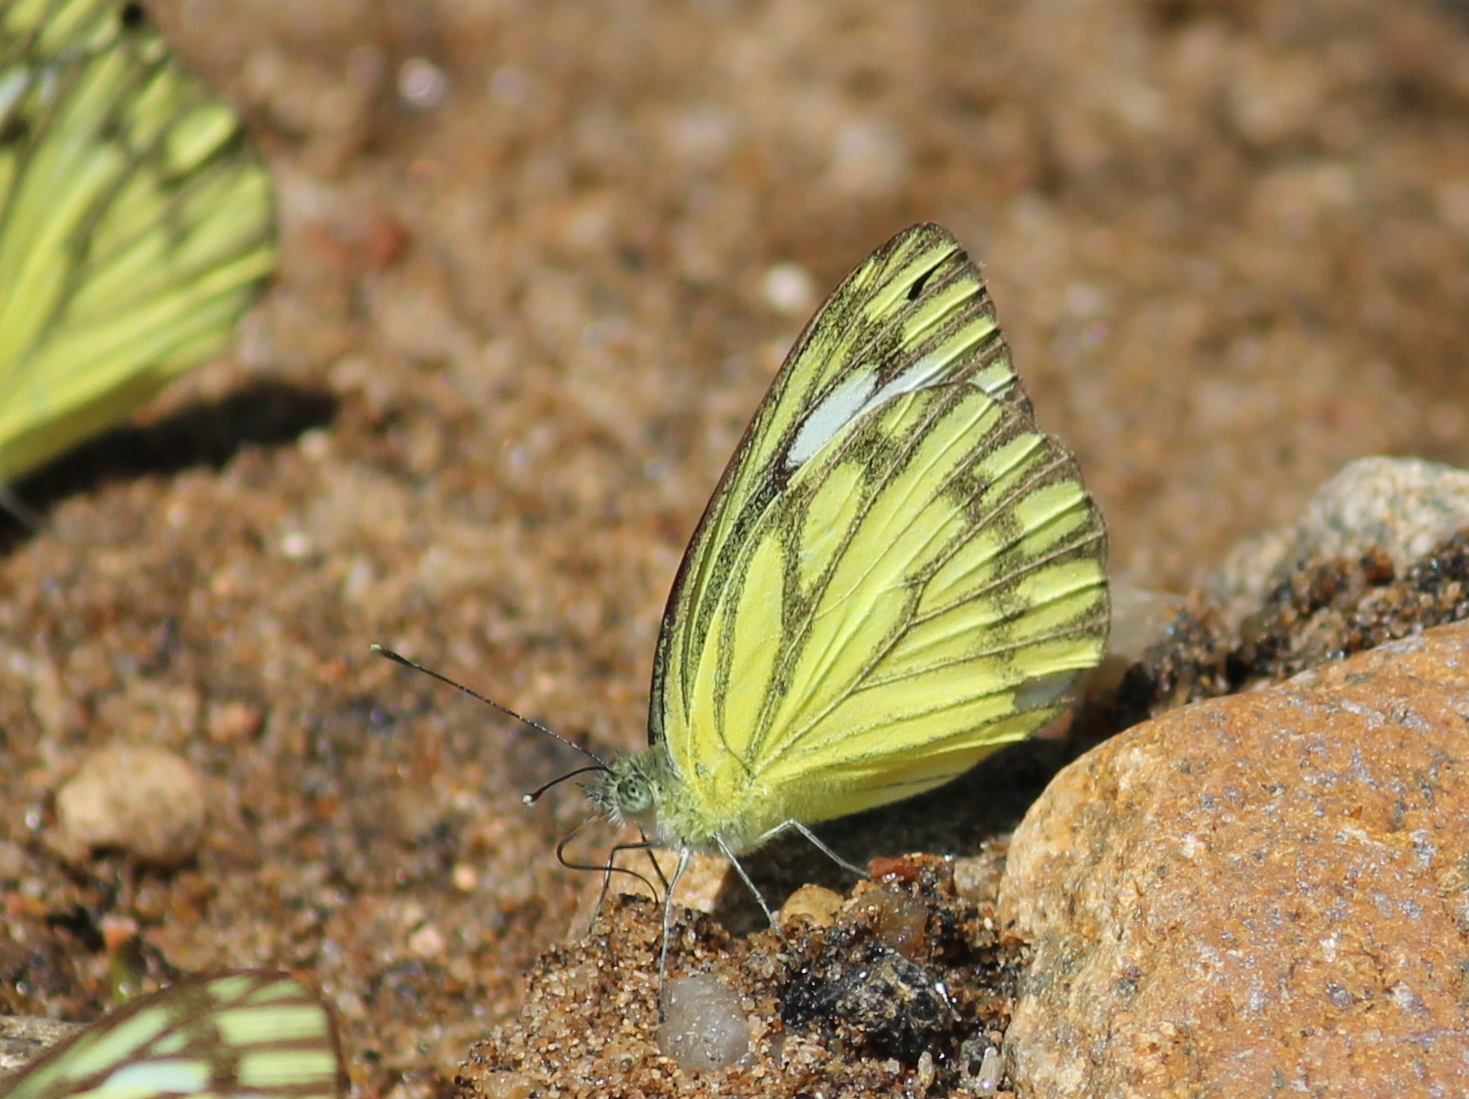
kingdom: Animalia
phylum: Arthropoda
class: Insecta
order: Lepidoptera
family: Pieridae
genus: Cepora
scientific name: Cepora nerissa
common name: Common gull
